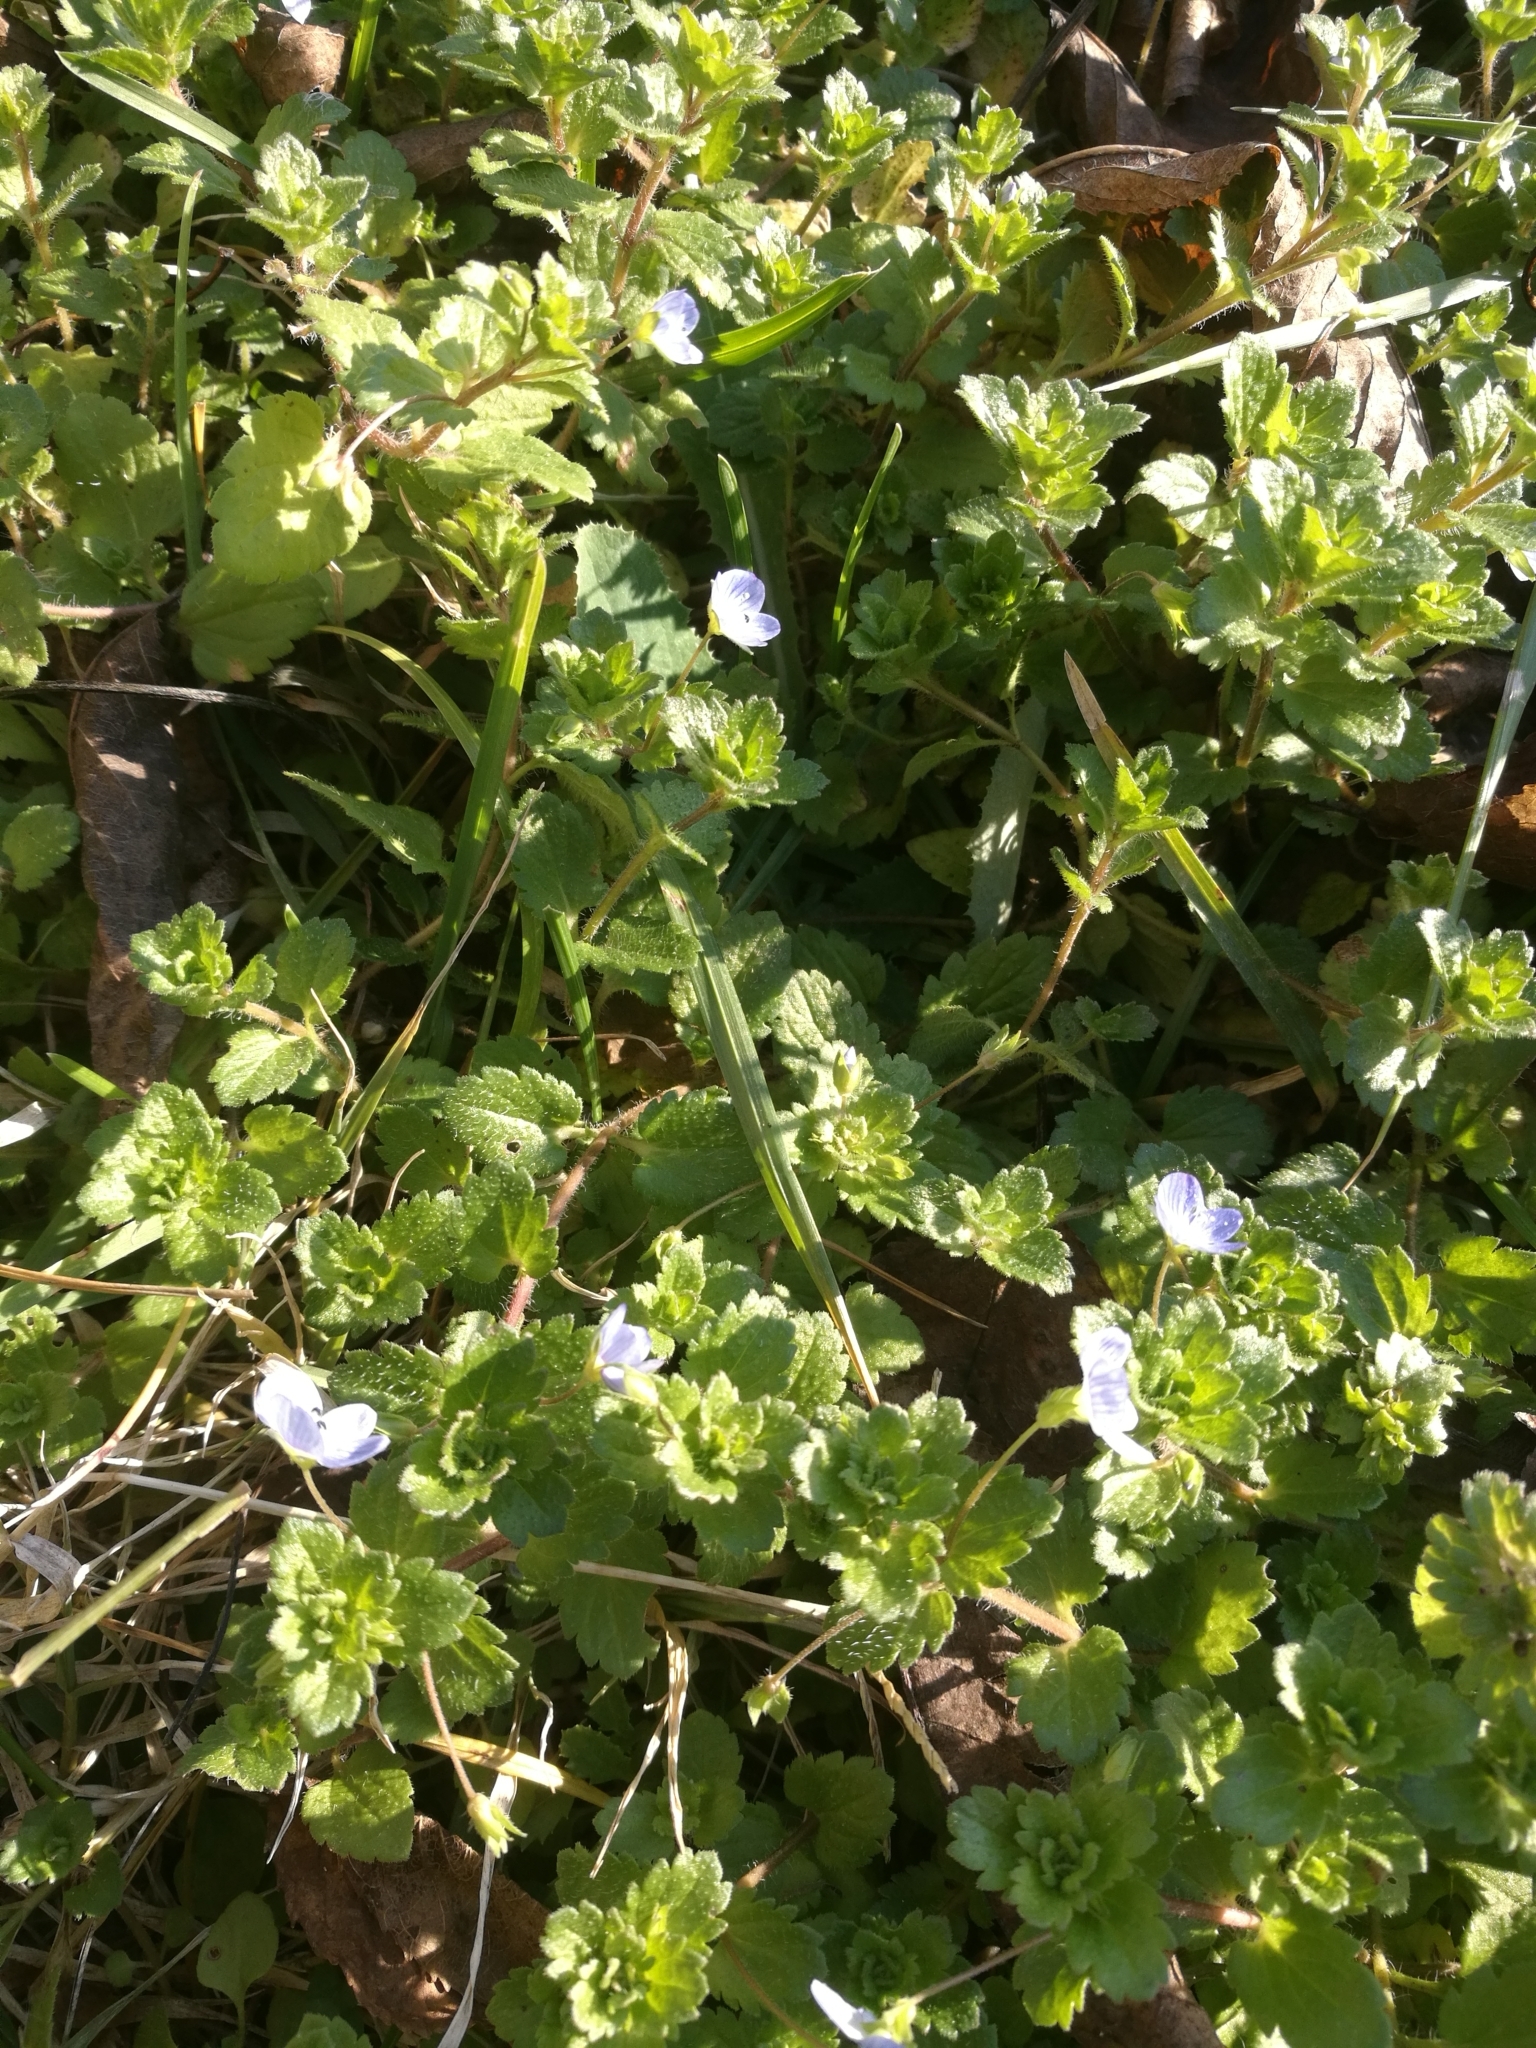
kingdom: Plantae
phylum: Tracheophyta
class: Magnoliopsida
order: Lamiales
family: Plantaginaceae
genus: Veronica
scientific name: Veronica persica
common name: Common field-speedwell
